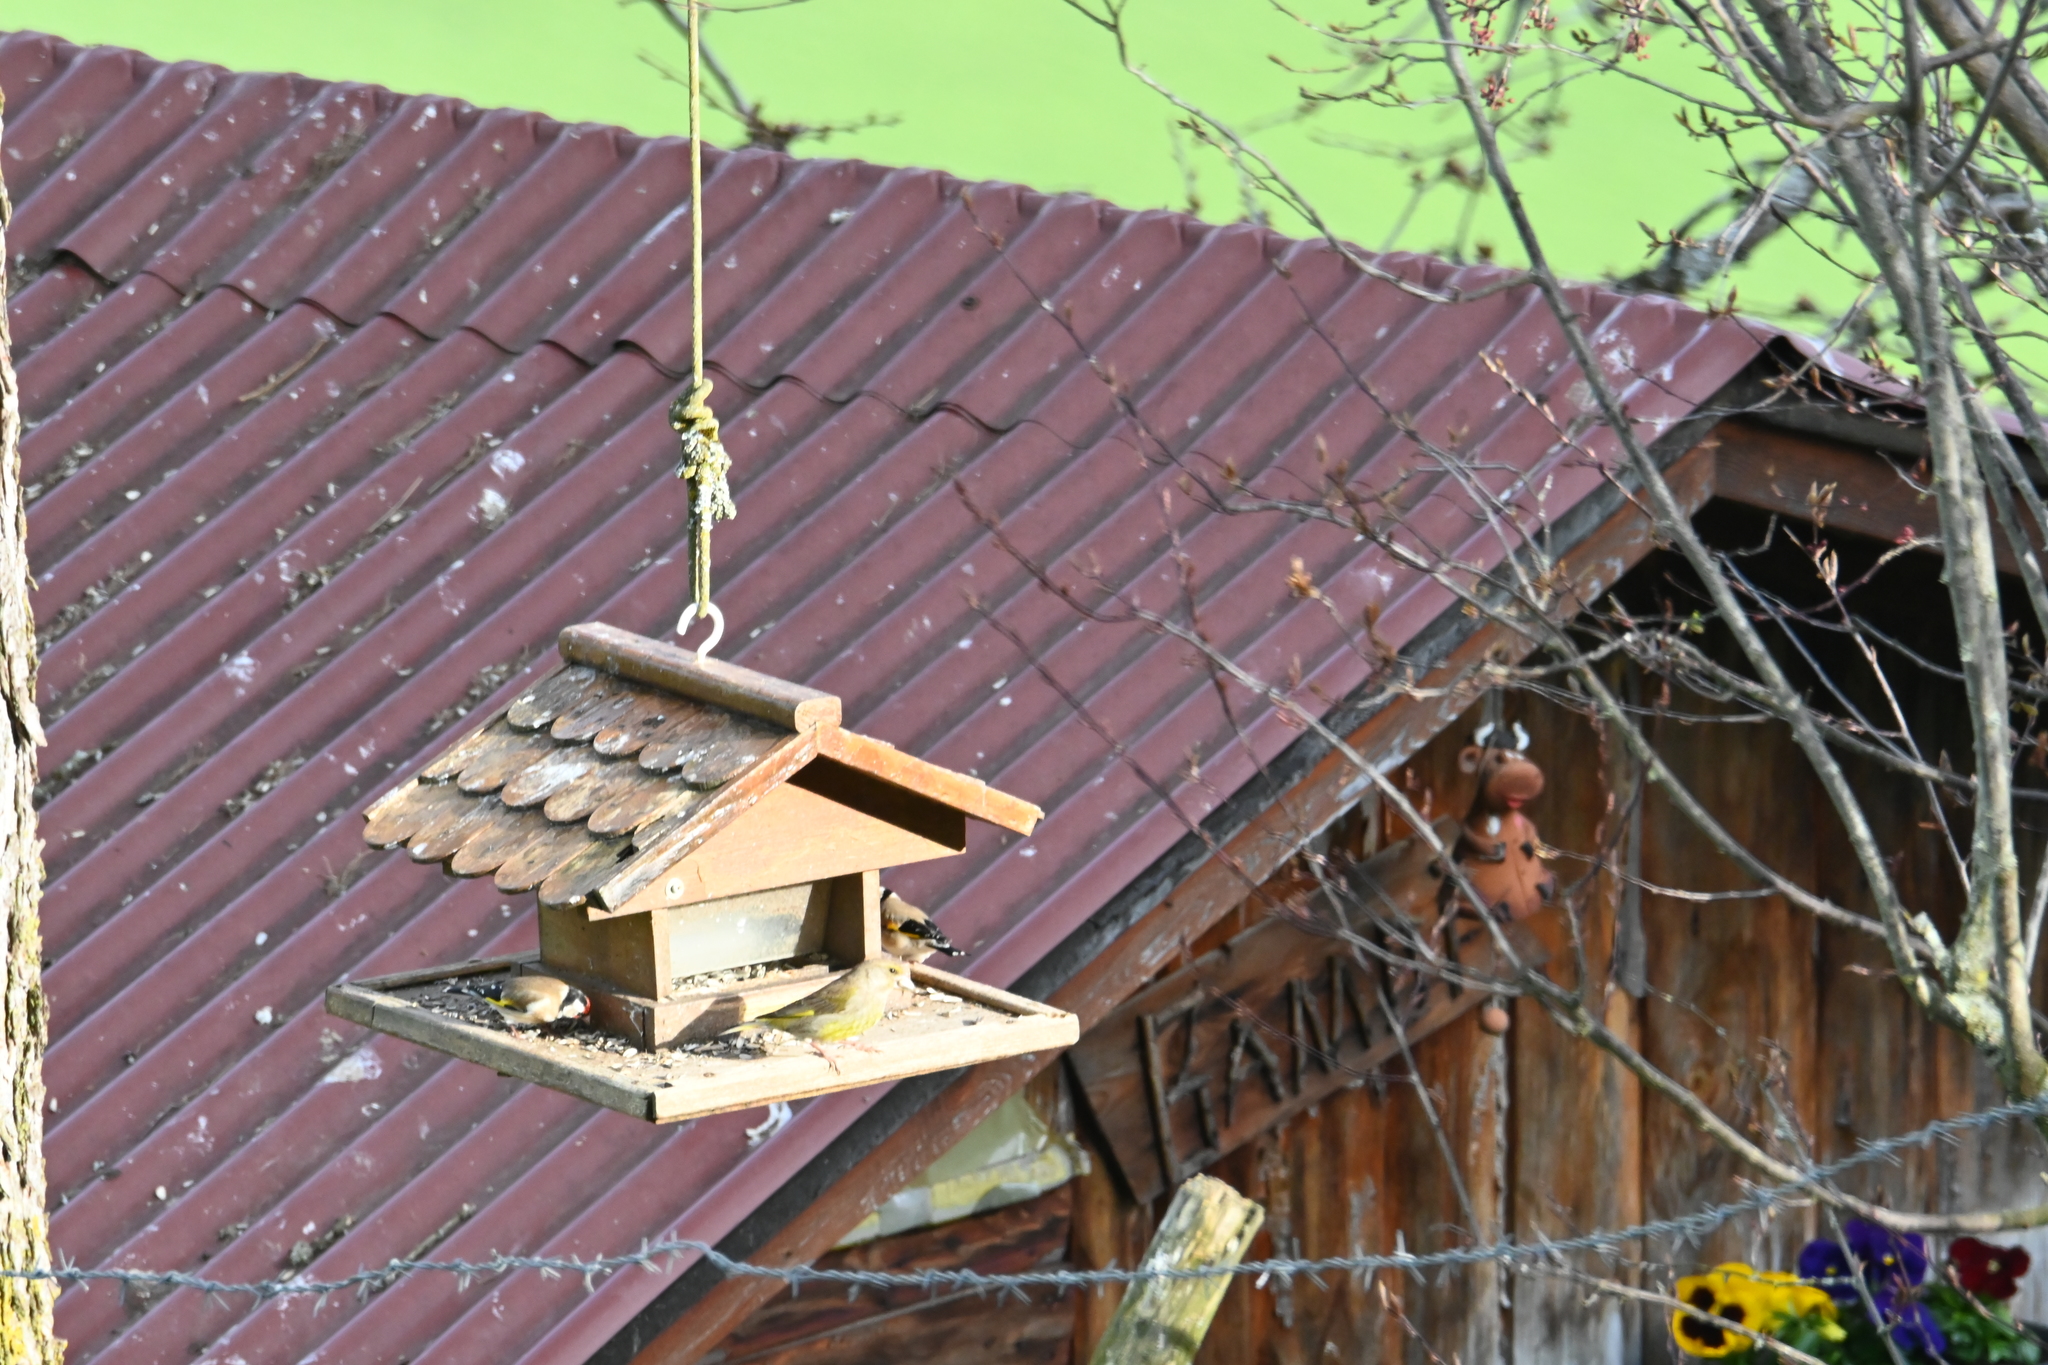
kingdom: Plantae
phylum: Tracheophyta
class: Liliopsida
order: Poales
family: Poaceae
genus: Chloris
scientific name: Chloris chloris
